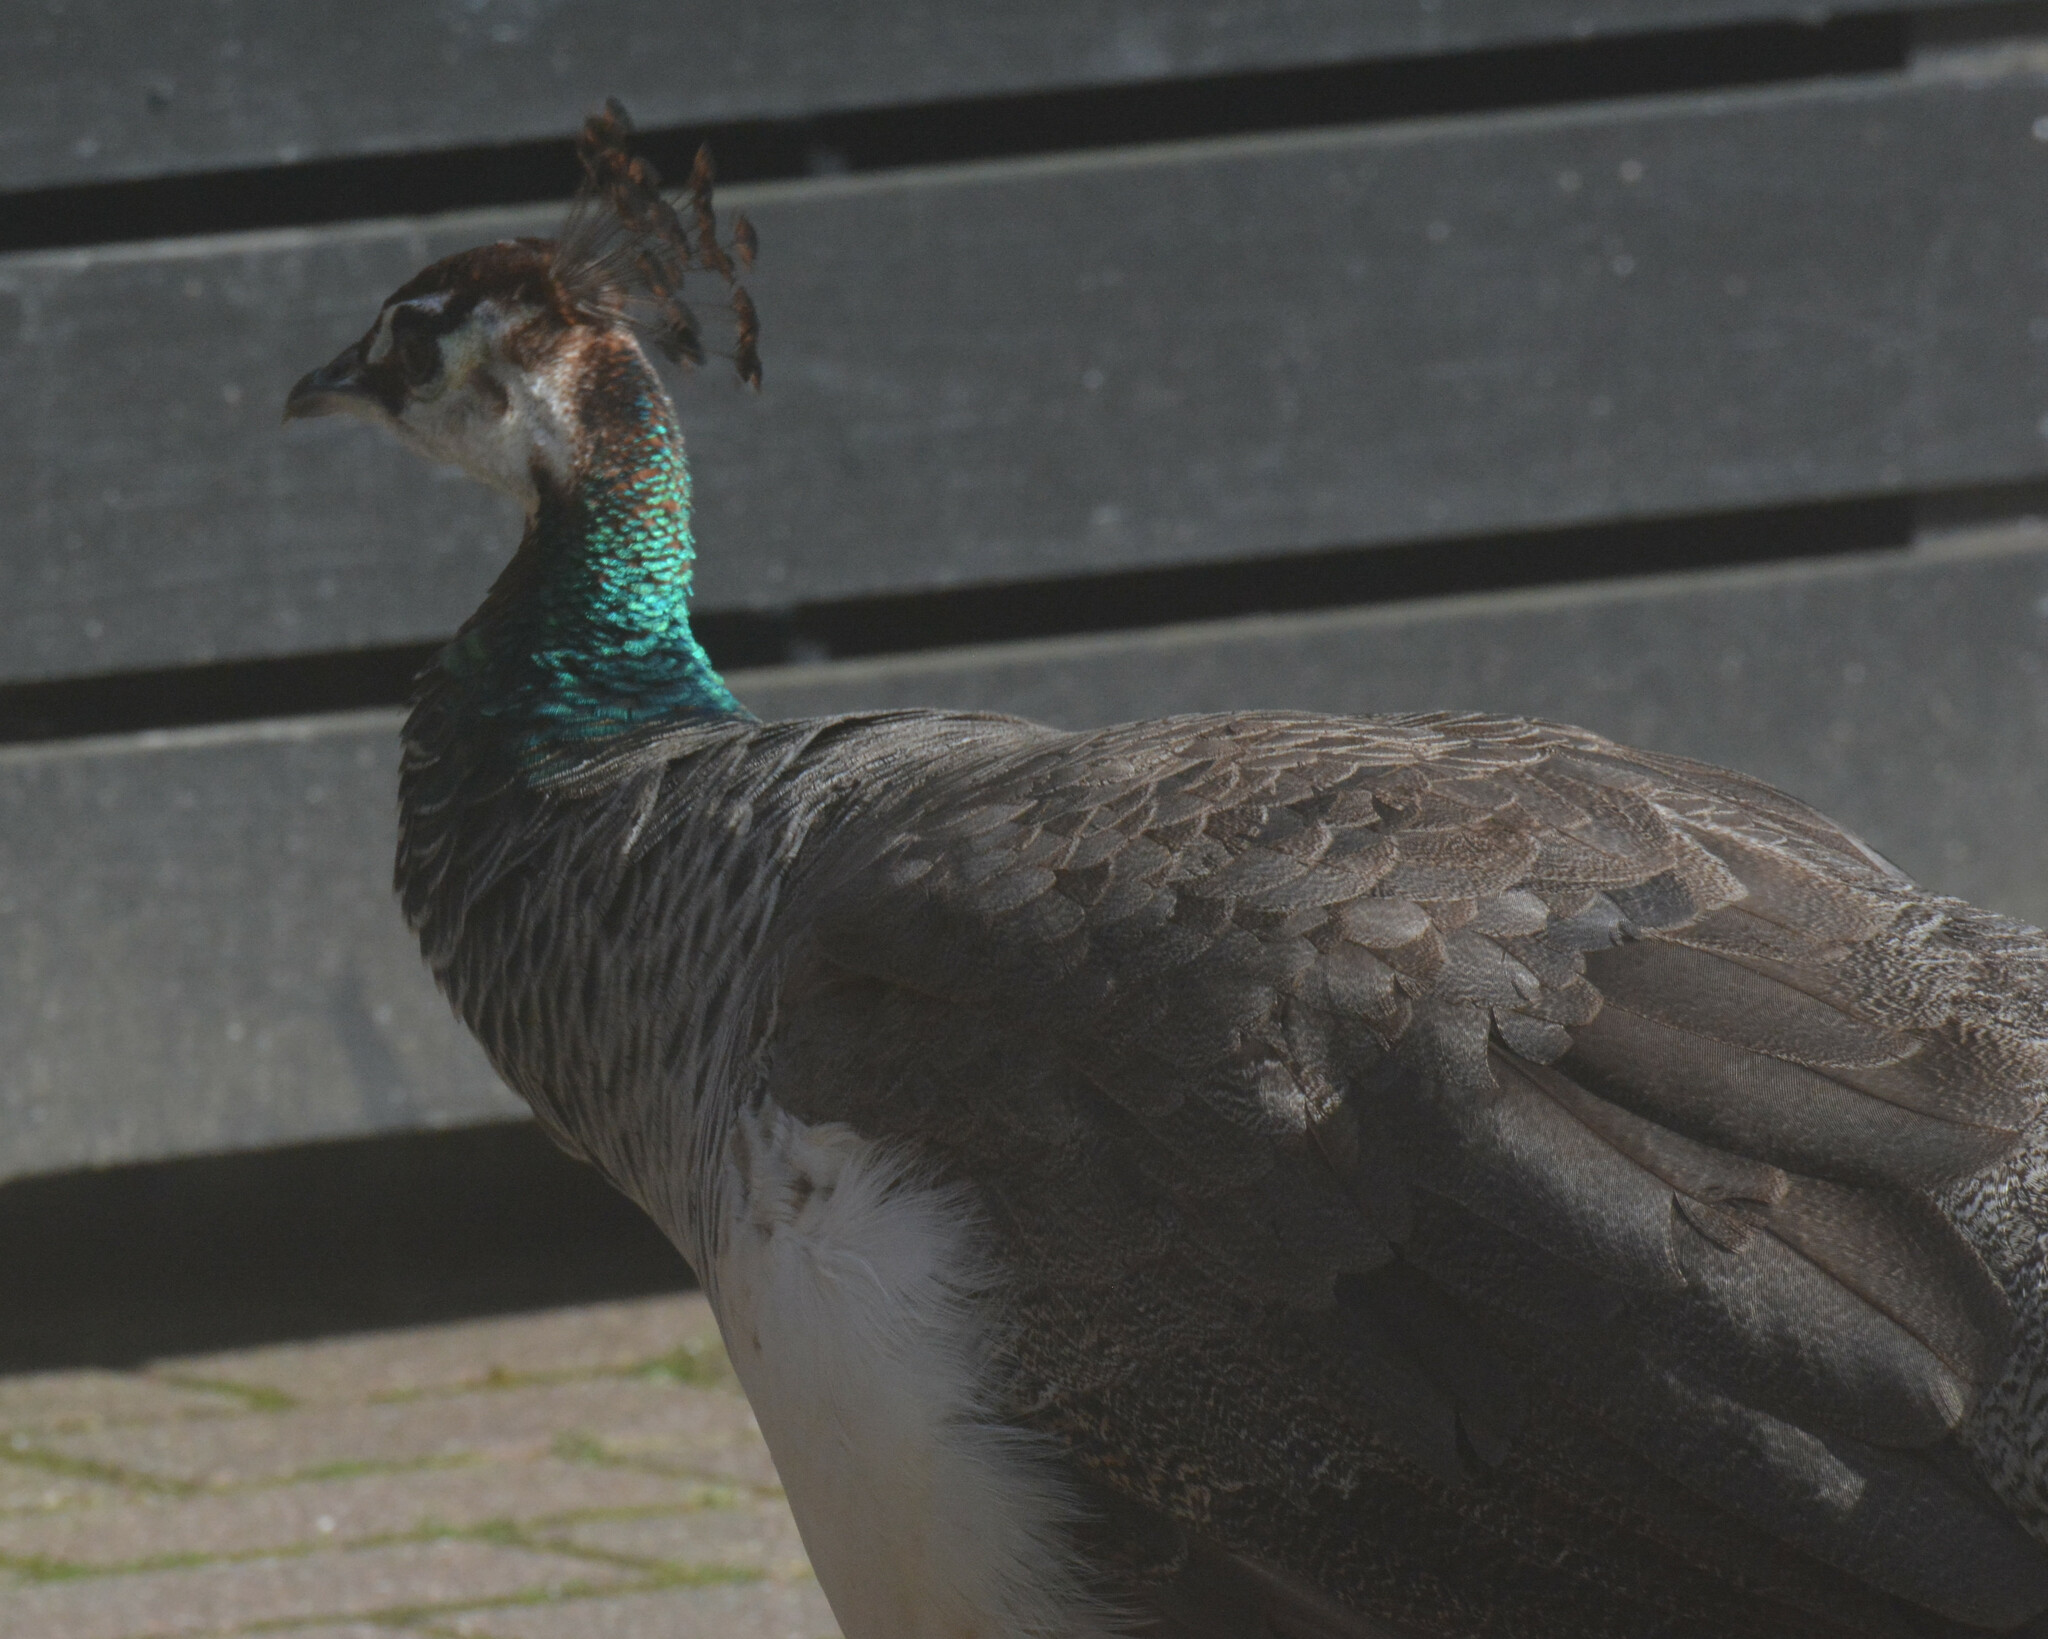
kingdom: Animalia
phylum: Chordata
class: Aves
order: Galliformes
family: Phasianidae
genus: Pavo
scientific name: Pavo cristatus
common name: Indian peafowl
